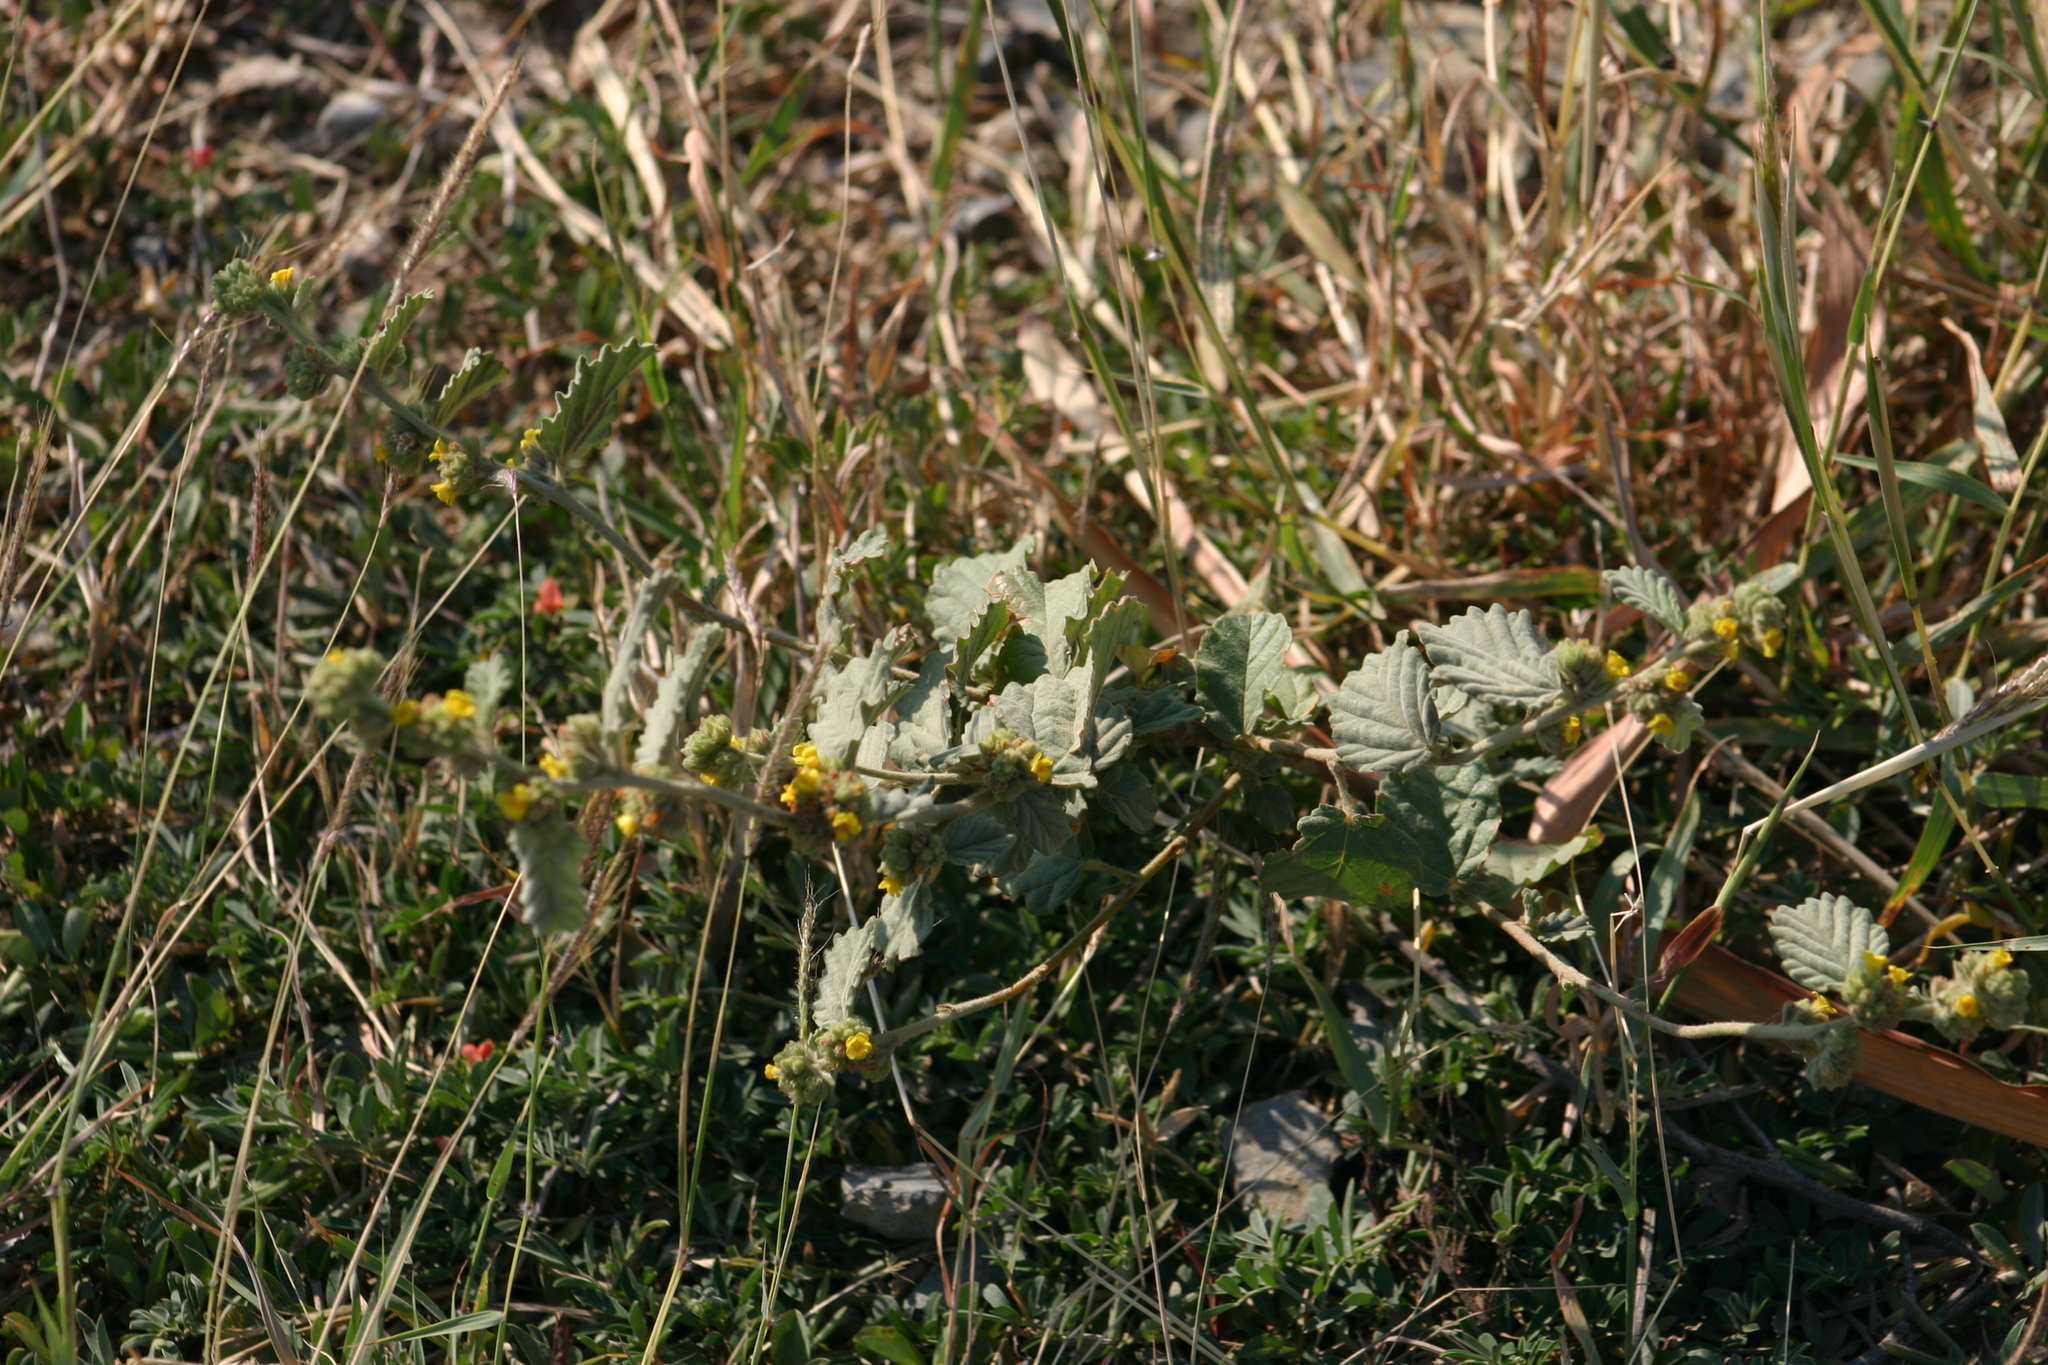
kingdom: Plantae
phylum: Tracheophyta
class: Magnoliopsida
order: Malvales
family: Malvaceae
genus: Waltheria
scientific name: Waltheria indica
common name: Leather-coat
